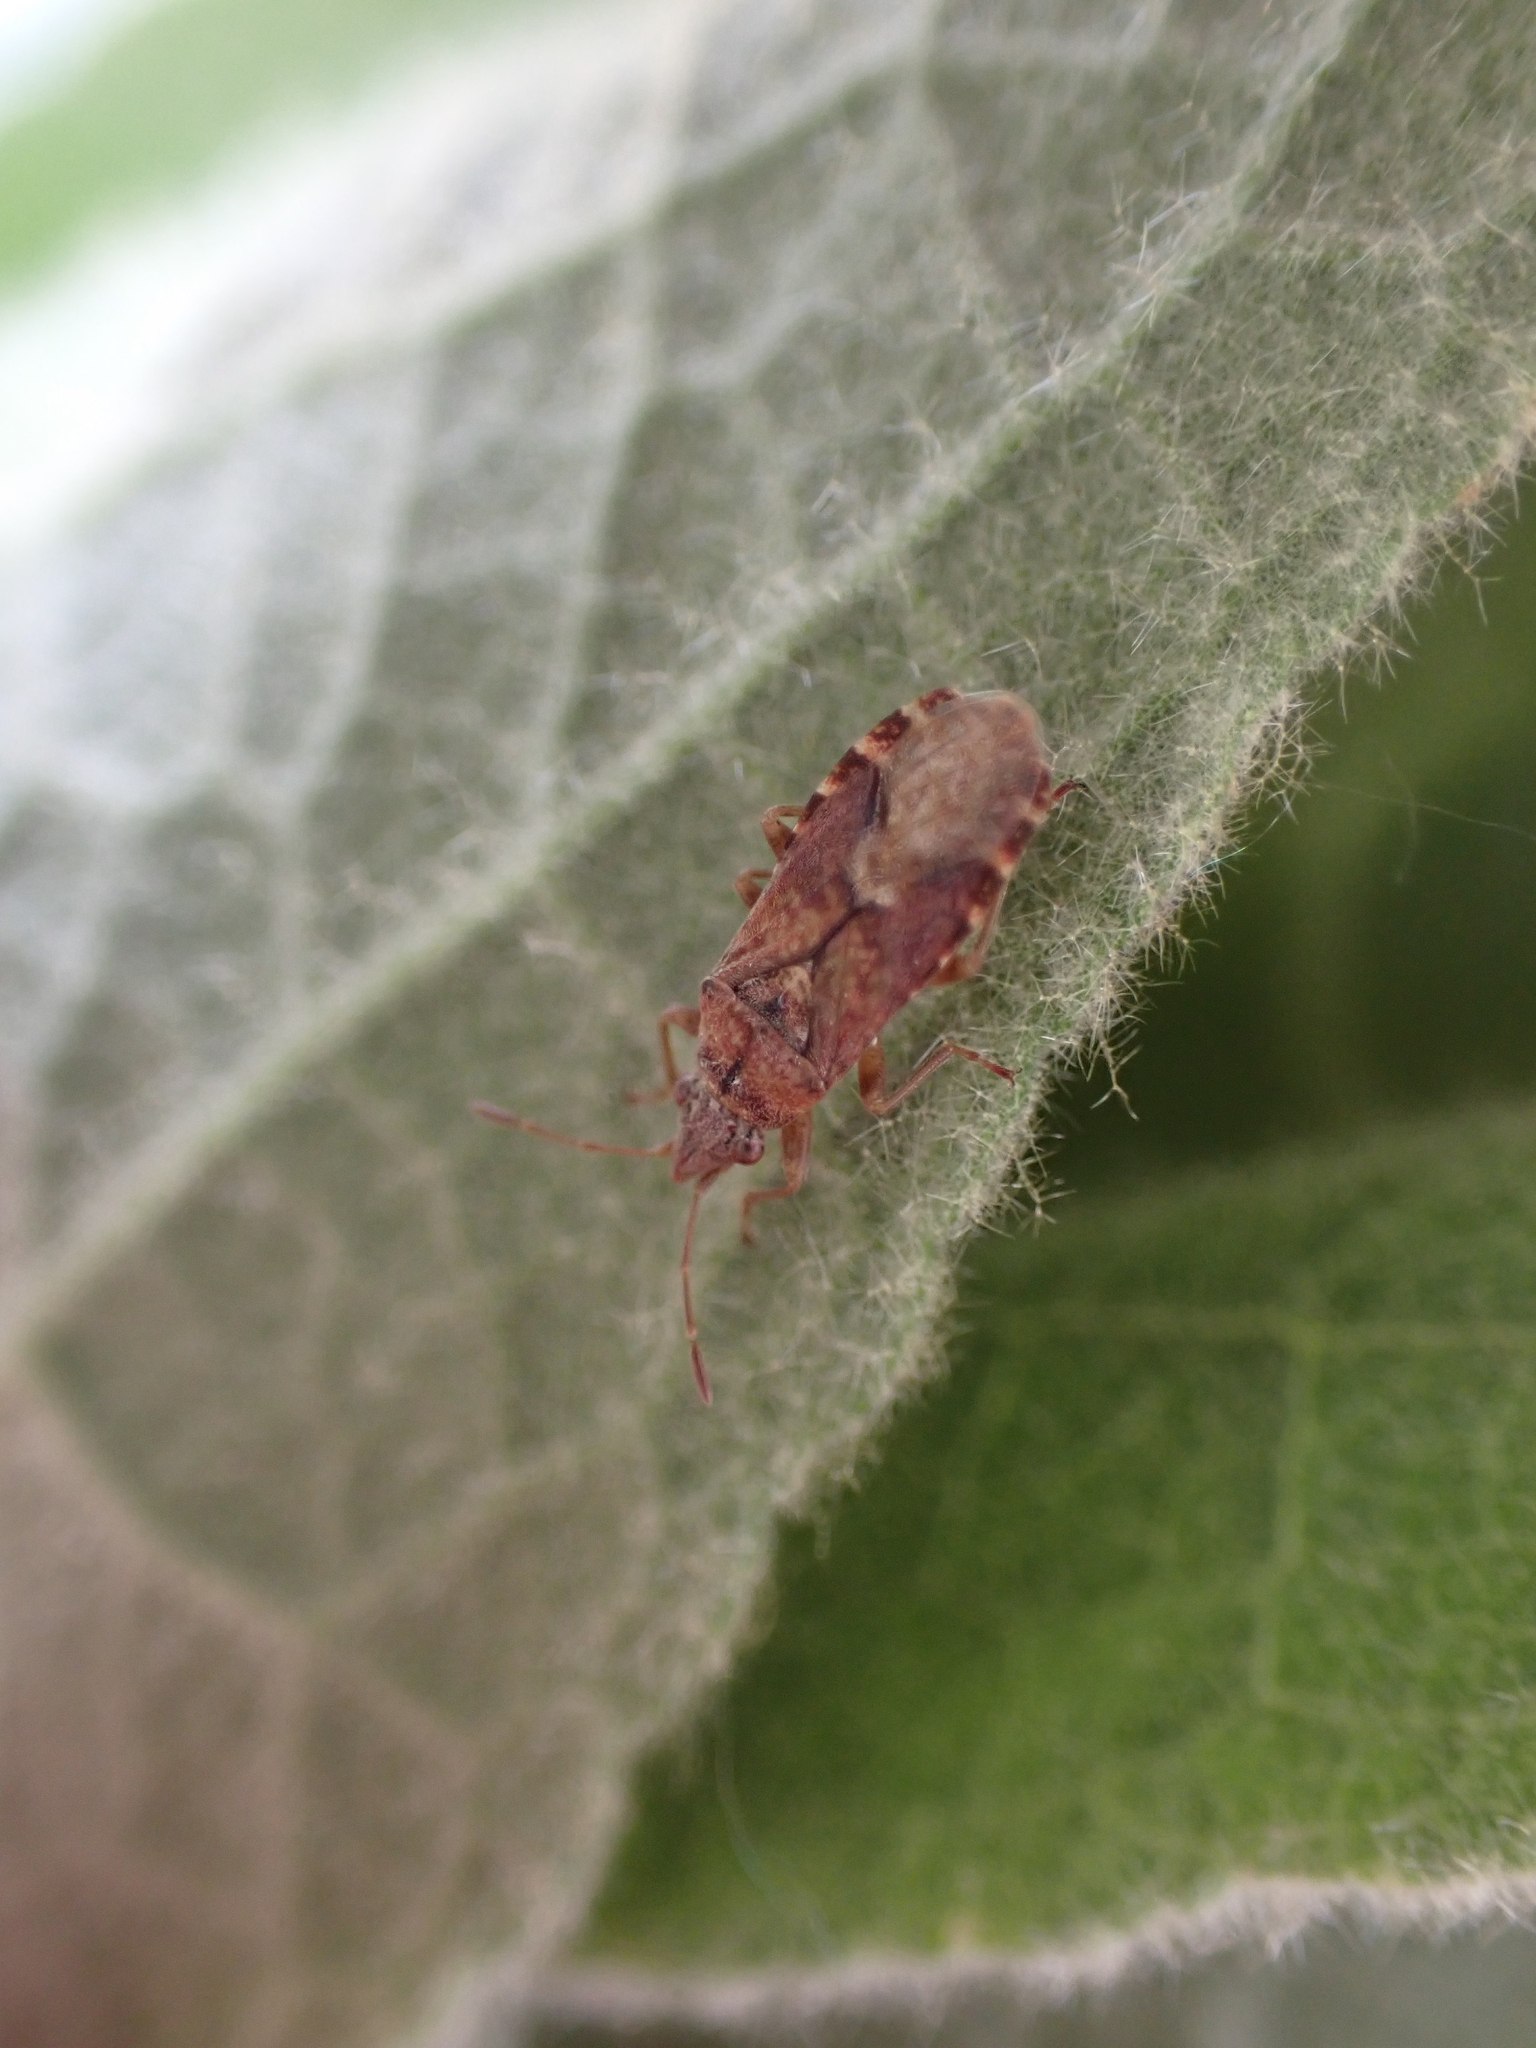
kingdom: Animalia
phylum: Arthropoda
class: Insecta
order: Hemiptera
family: Lygaeidae
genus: Orsillus
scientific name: Orsillus depressus
